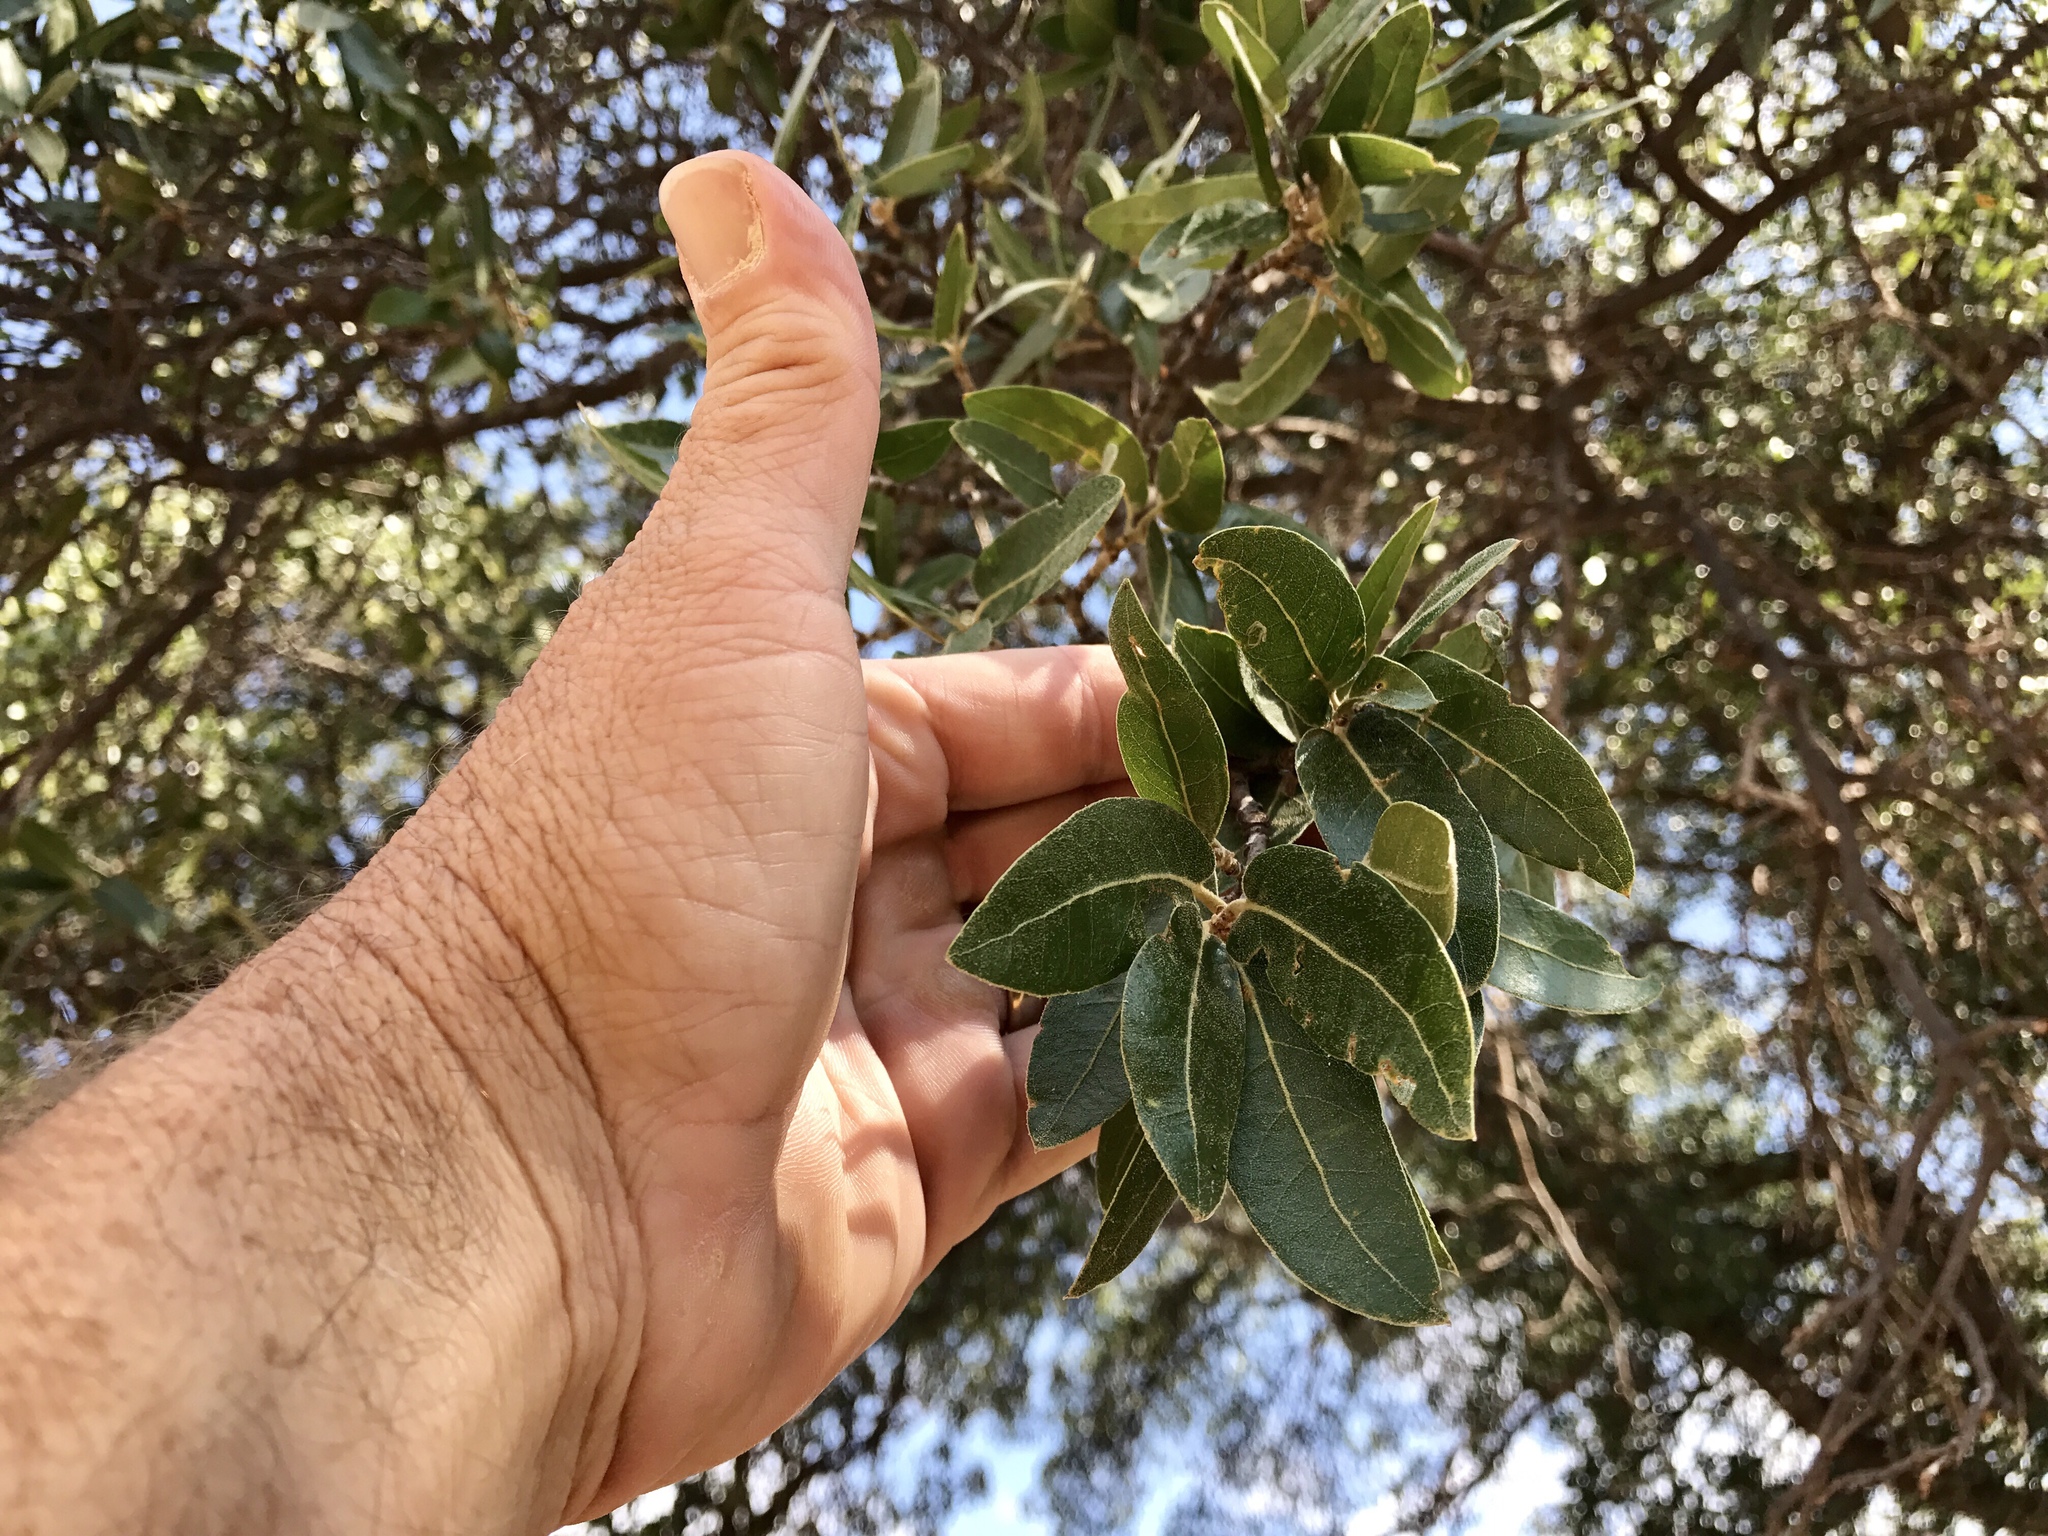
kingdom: Plantae
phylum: Tracheophyta
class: Magnoliopsida
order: Fagales
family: Fagaceae
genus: Quercus
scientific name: Quercus arizonica
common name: Arizona white oak
